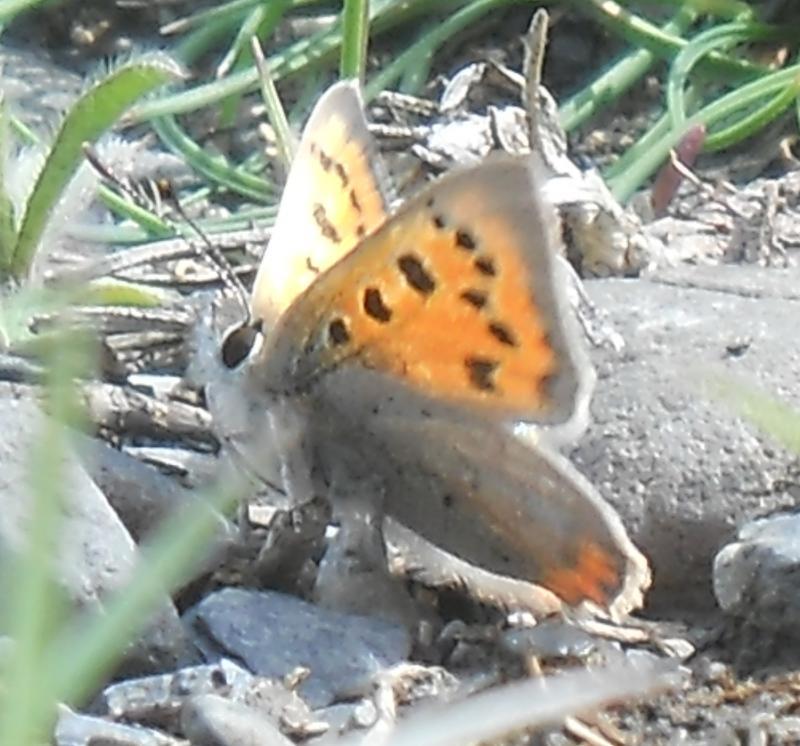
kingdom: Animalia
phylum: Arthropoda
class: Insecta
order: Lepidoptera
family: Lycaenidae
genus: Lycaena
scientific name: Lycaena phlaeas
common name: Small copper
